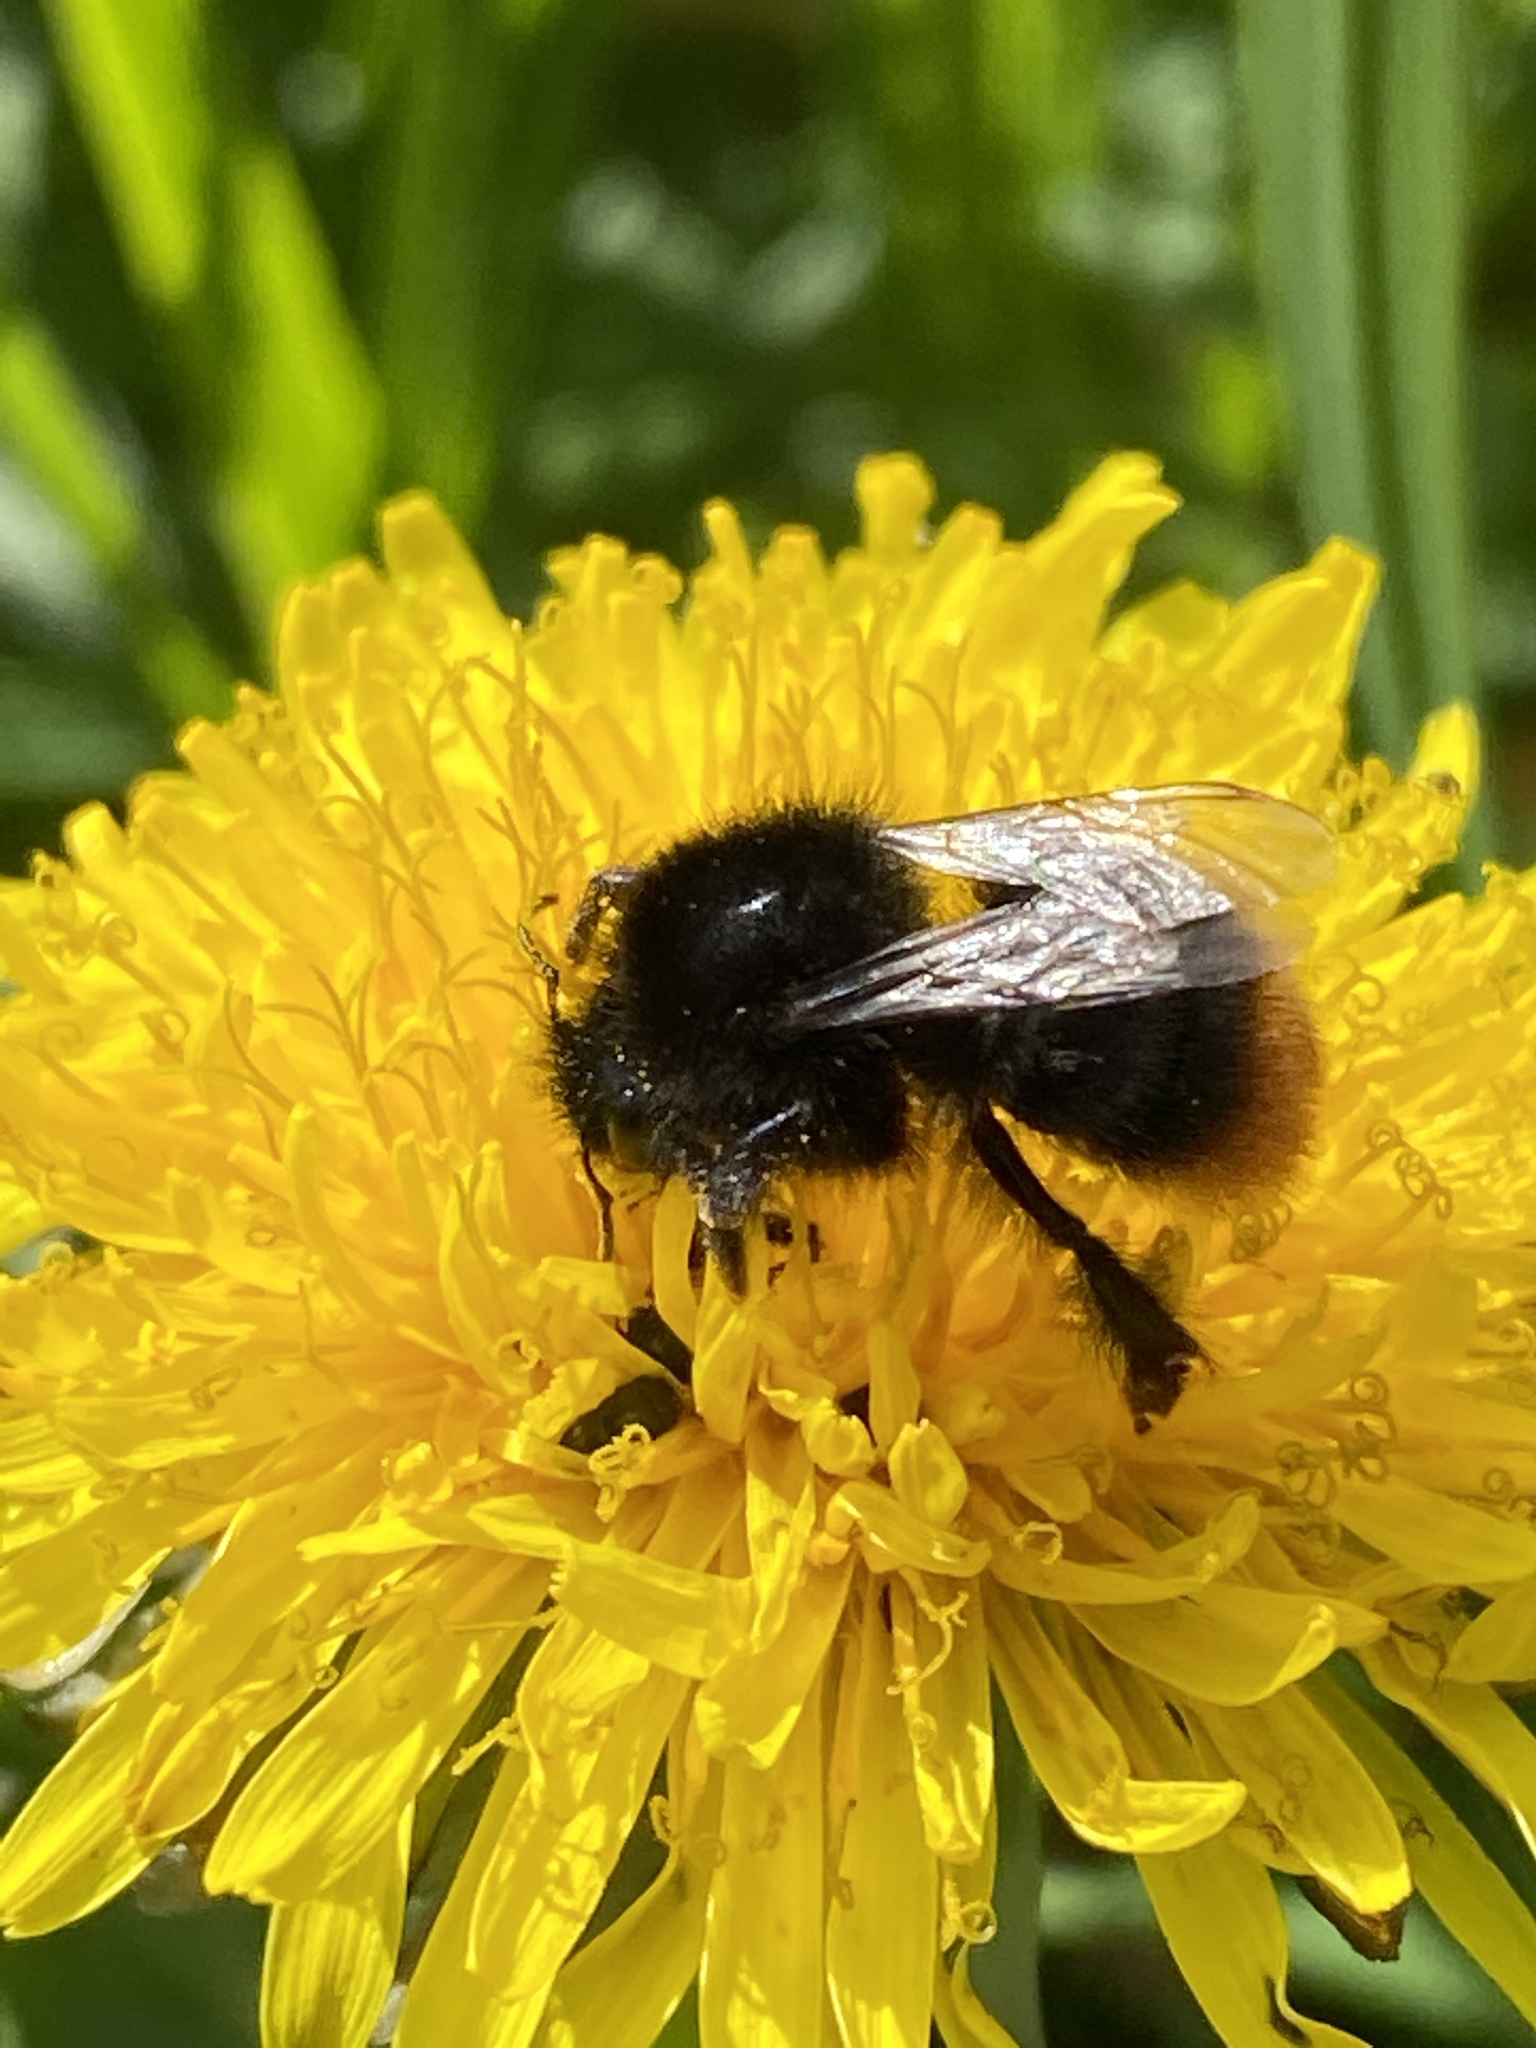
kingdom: Animalia
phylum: Arthropoda
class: Insecta
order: Hymenoptera
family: Apidae
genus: Bombus
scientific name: Bombus lapidarius
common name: Large red-tailed humble-bee
